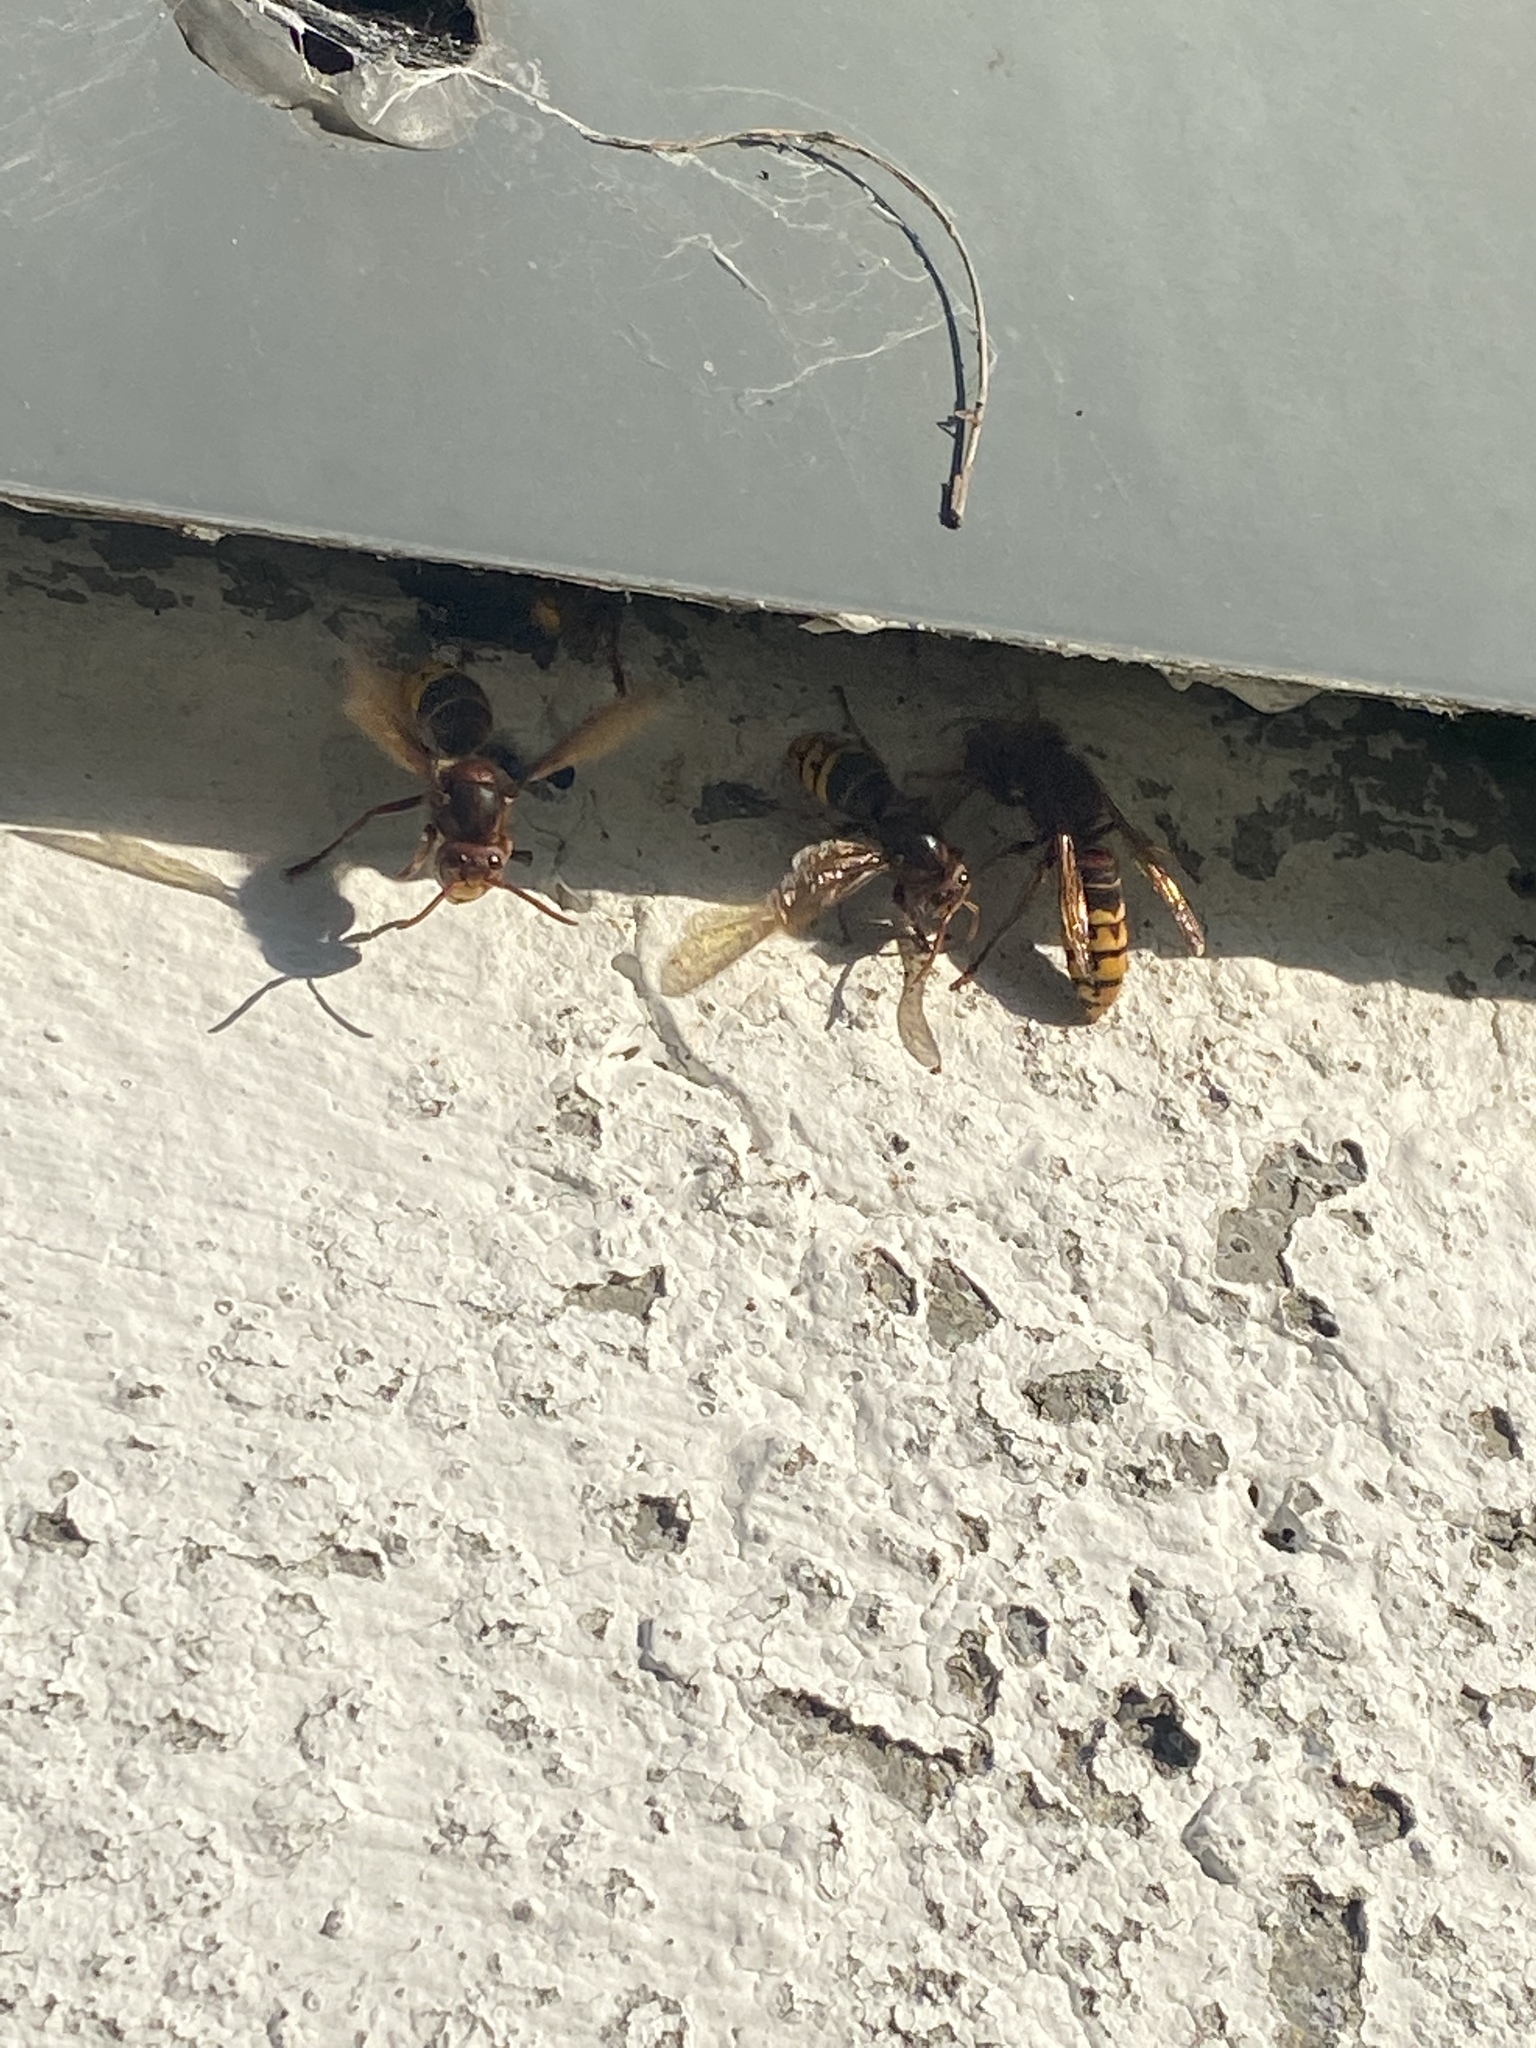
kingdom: Animalia
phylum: Arthropoda
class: Insecta
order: Hymenoptera
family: Vespidae
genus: Vespa
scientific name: Vespa crabro
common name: Hornet
